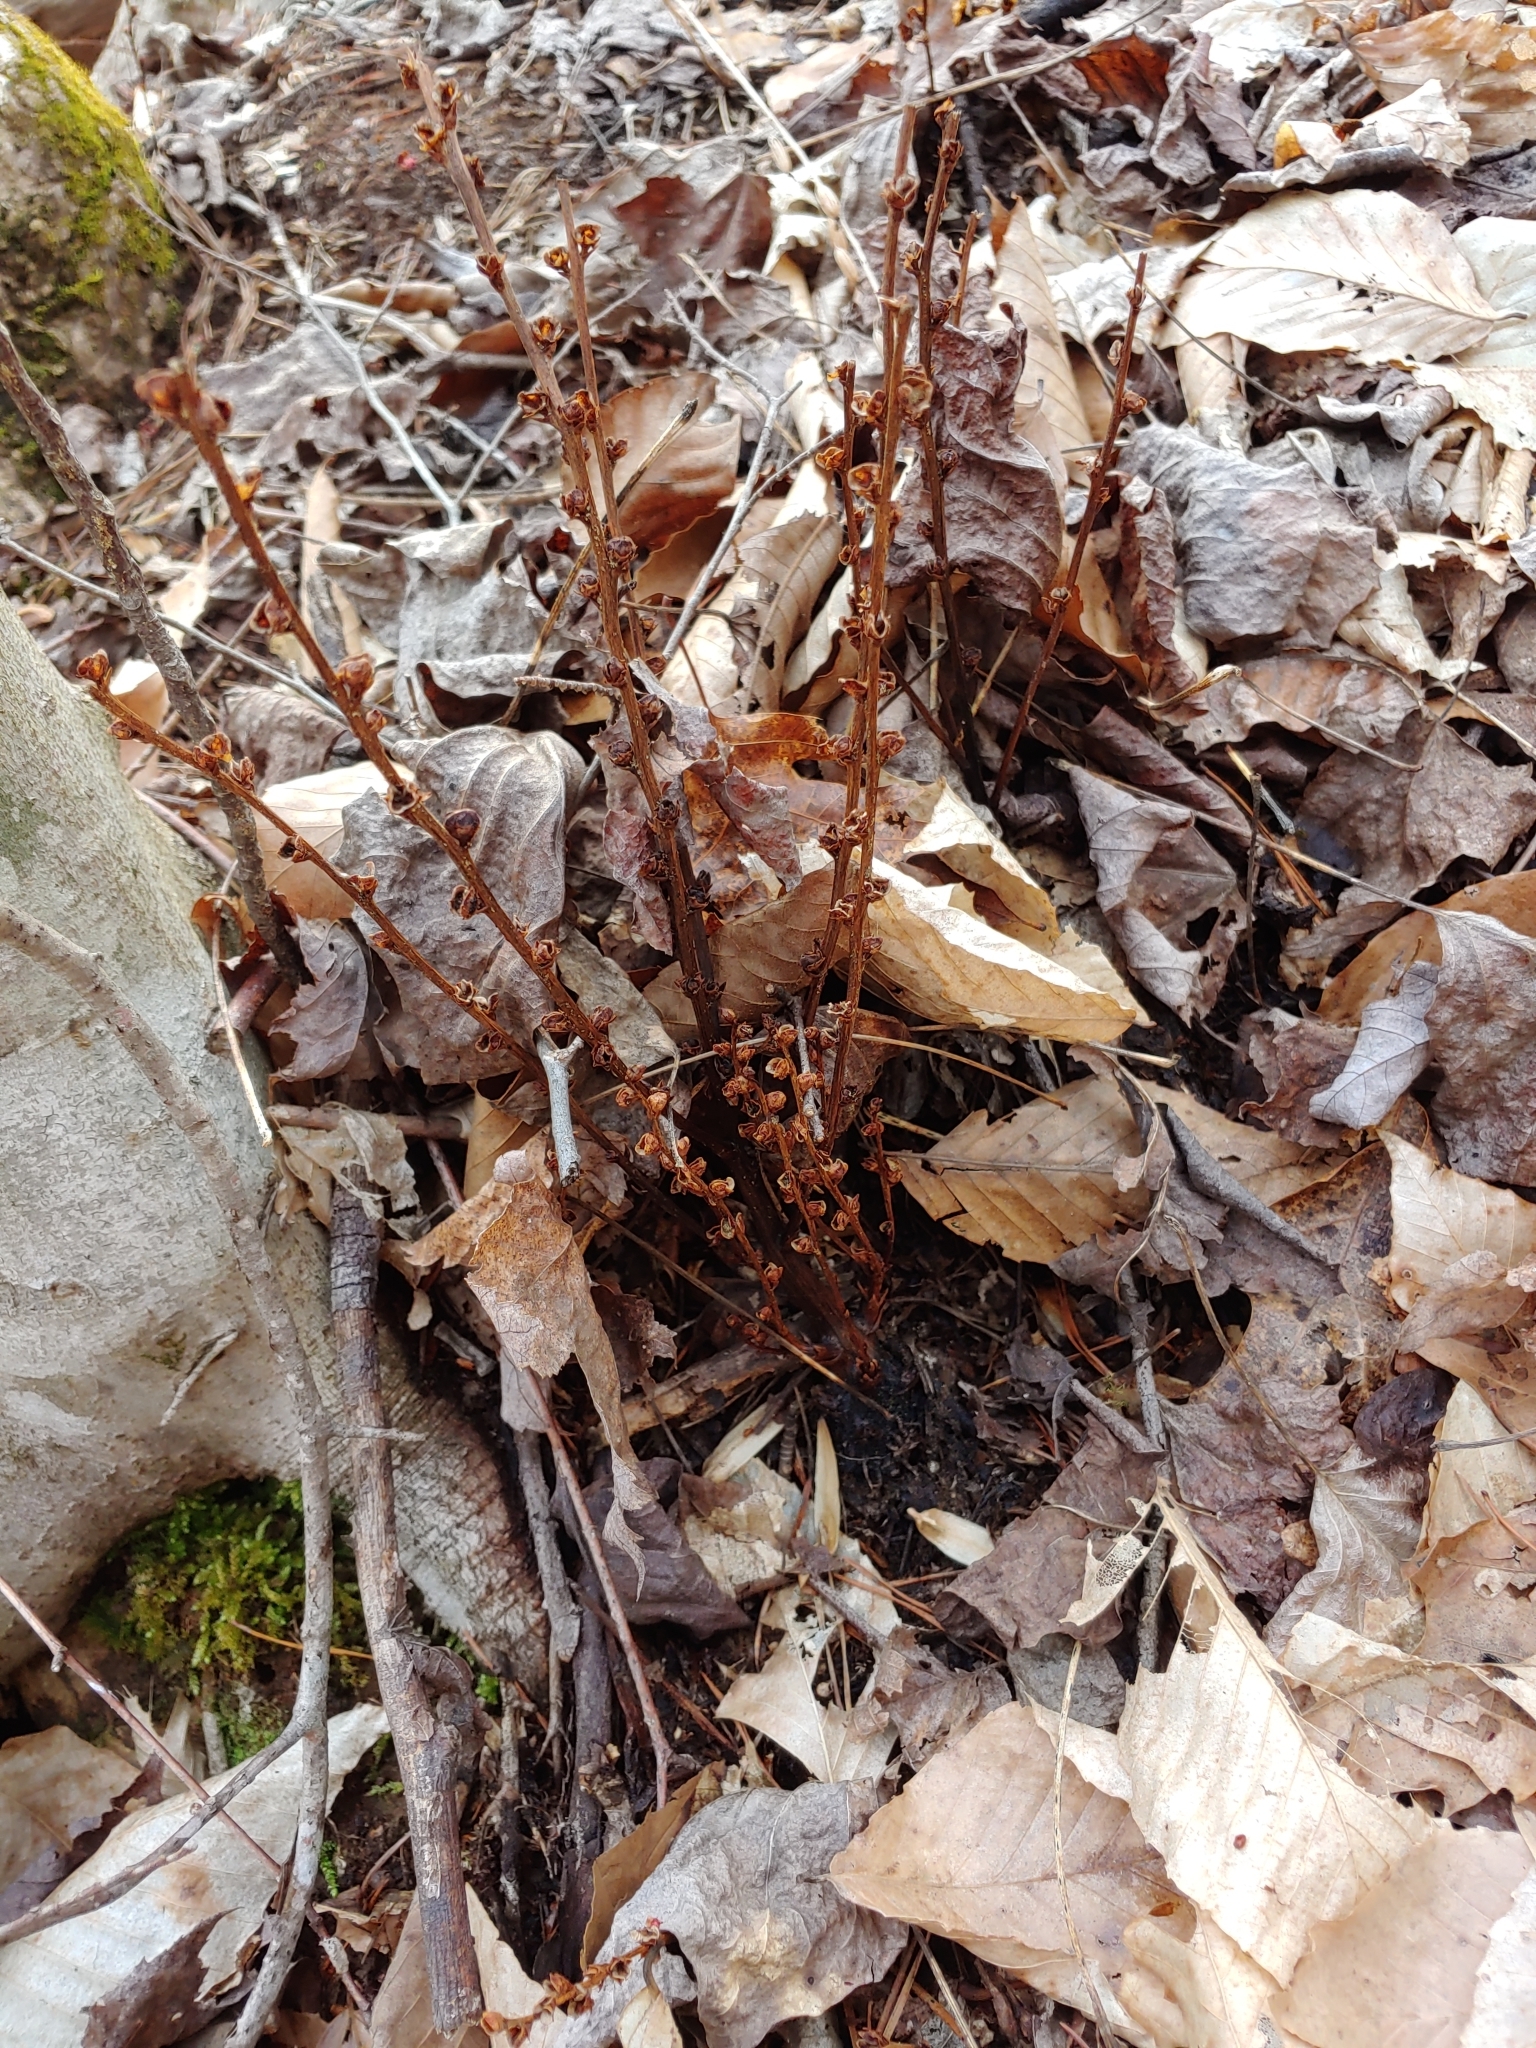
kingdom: Plantae
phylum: Tracheophyta
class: Magnoliopsida
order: Lamiales
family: Orobanchaceae
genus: Epifagus
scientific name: Epifagus virginiana
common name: Beechdrops
